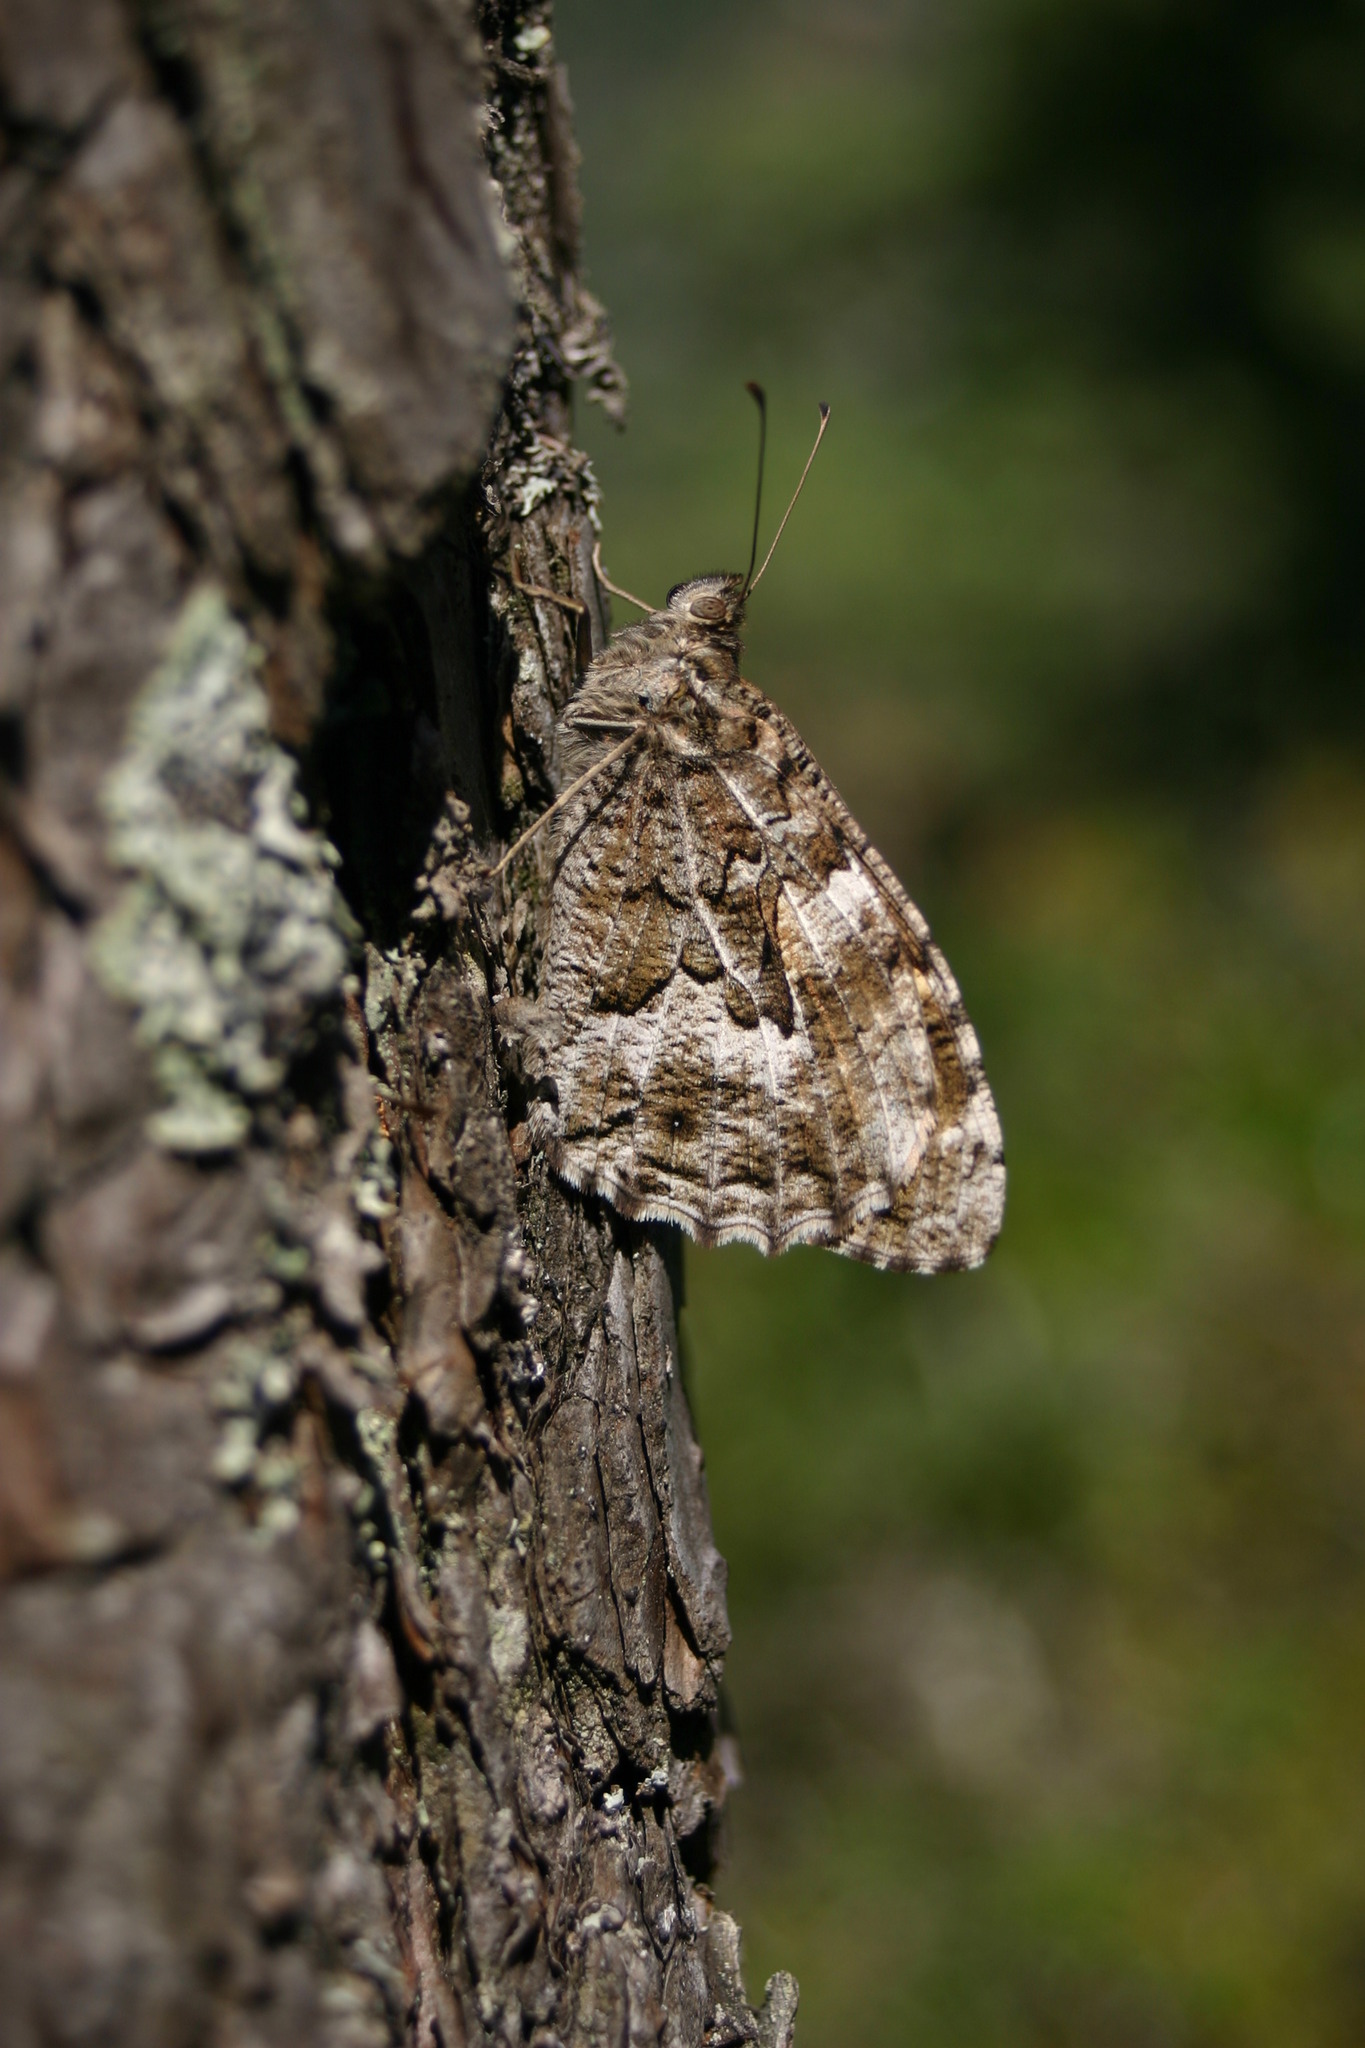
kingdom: Animalia
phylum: Arthropoda
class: Insecta
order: Lepidoptera
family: Nymphalidae
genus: Hipparchia
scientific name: Hipparchia semele
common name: Grayling
